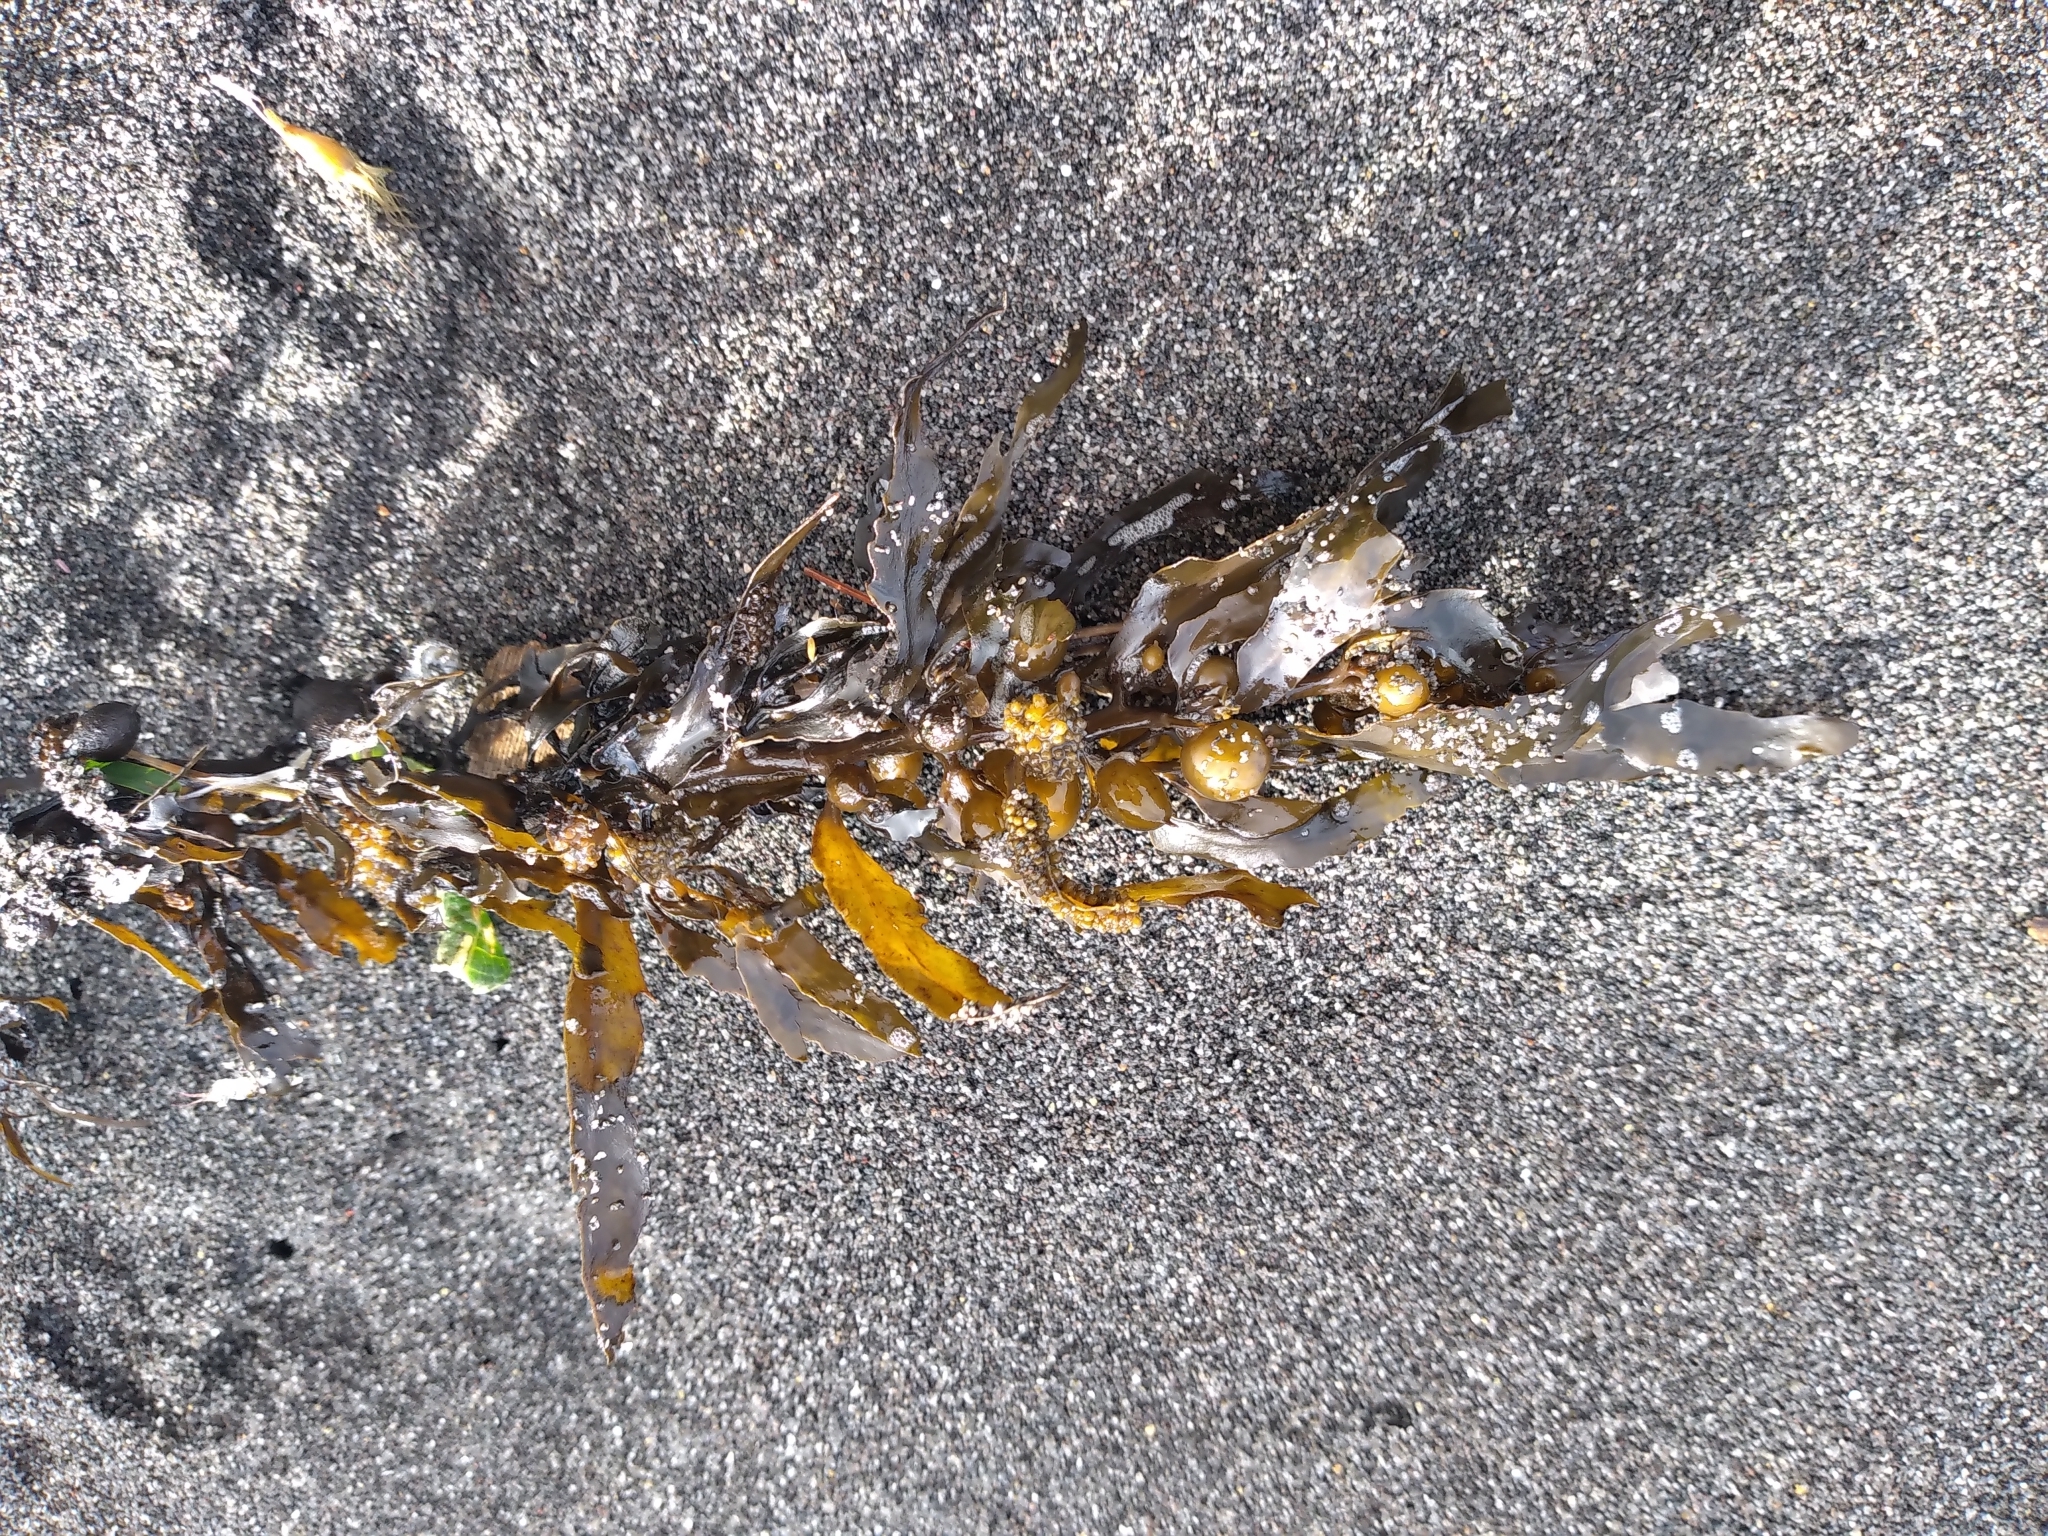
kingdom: Chromista
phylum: Ochrophyta
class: Phaeophyceae
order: Fucales
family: Sargassaceae
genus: Sargassum
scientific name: Sargassum sinclairii
